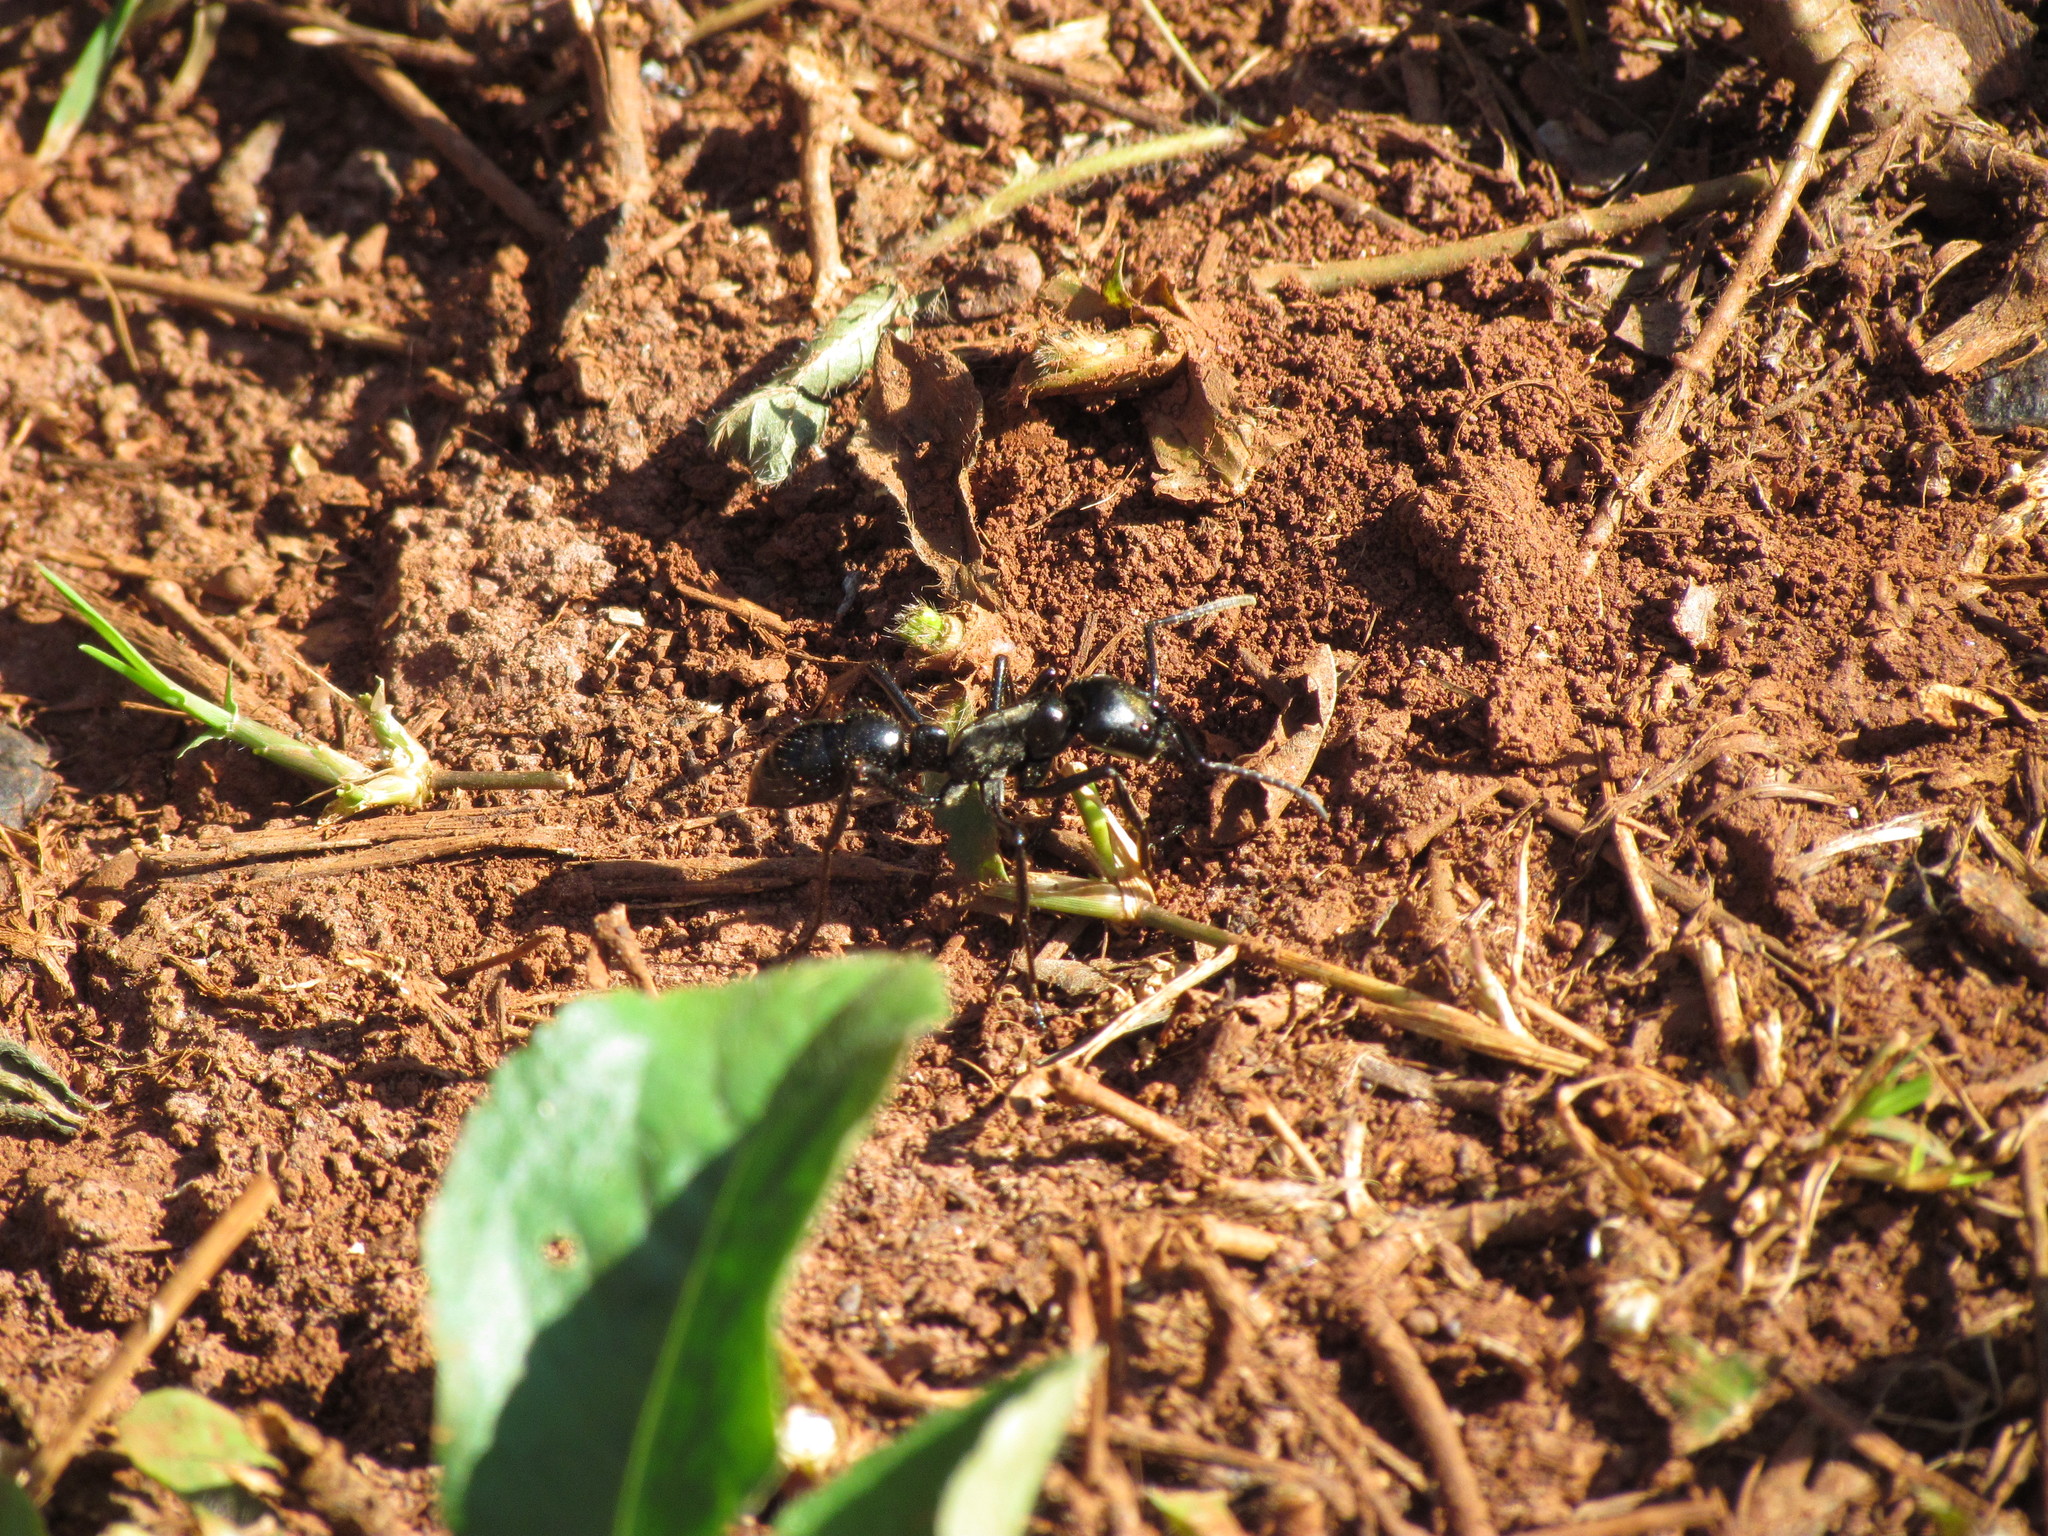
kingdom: Animalia
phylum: Arthropoda
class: Insecta
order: Hymenoptera
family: Formicidae
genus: Dinoponera
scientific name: Dinoponera grandis
